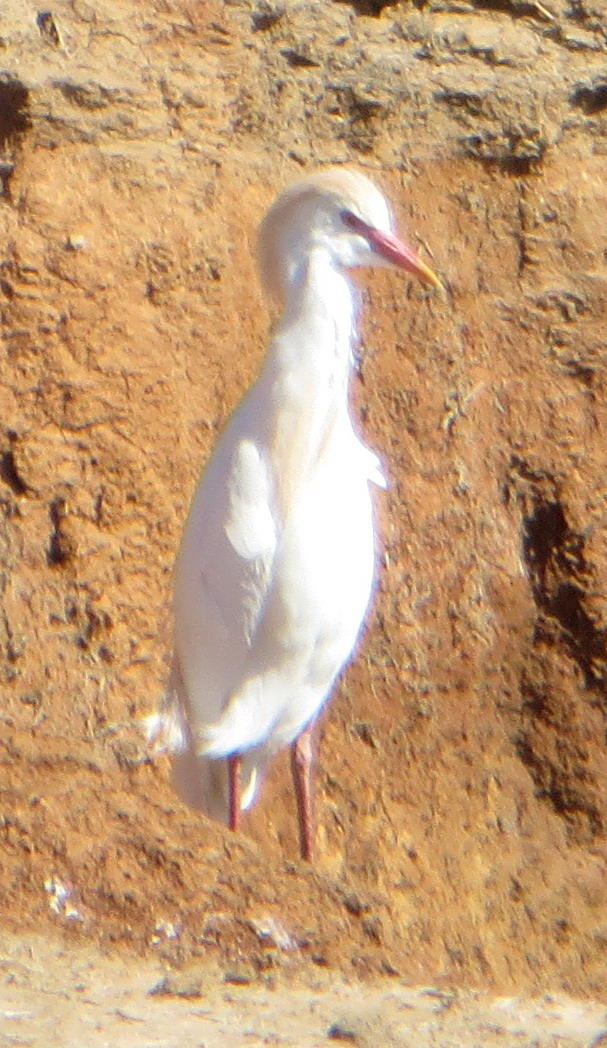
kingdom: Animalia
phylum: Chordata
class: Aves
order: Pelecaniformes
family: Ardeidae
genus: Bubulcus
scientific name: Bubulcus ibis
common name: Cattle egret
